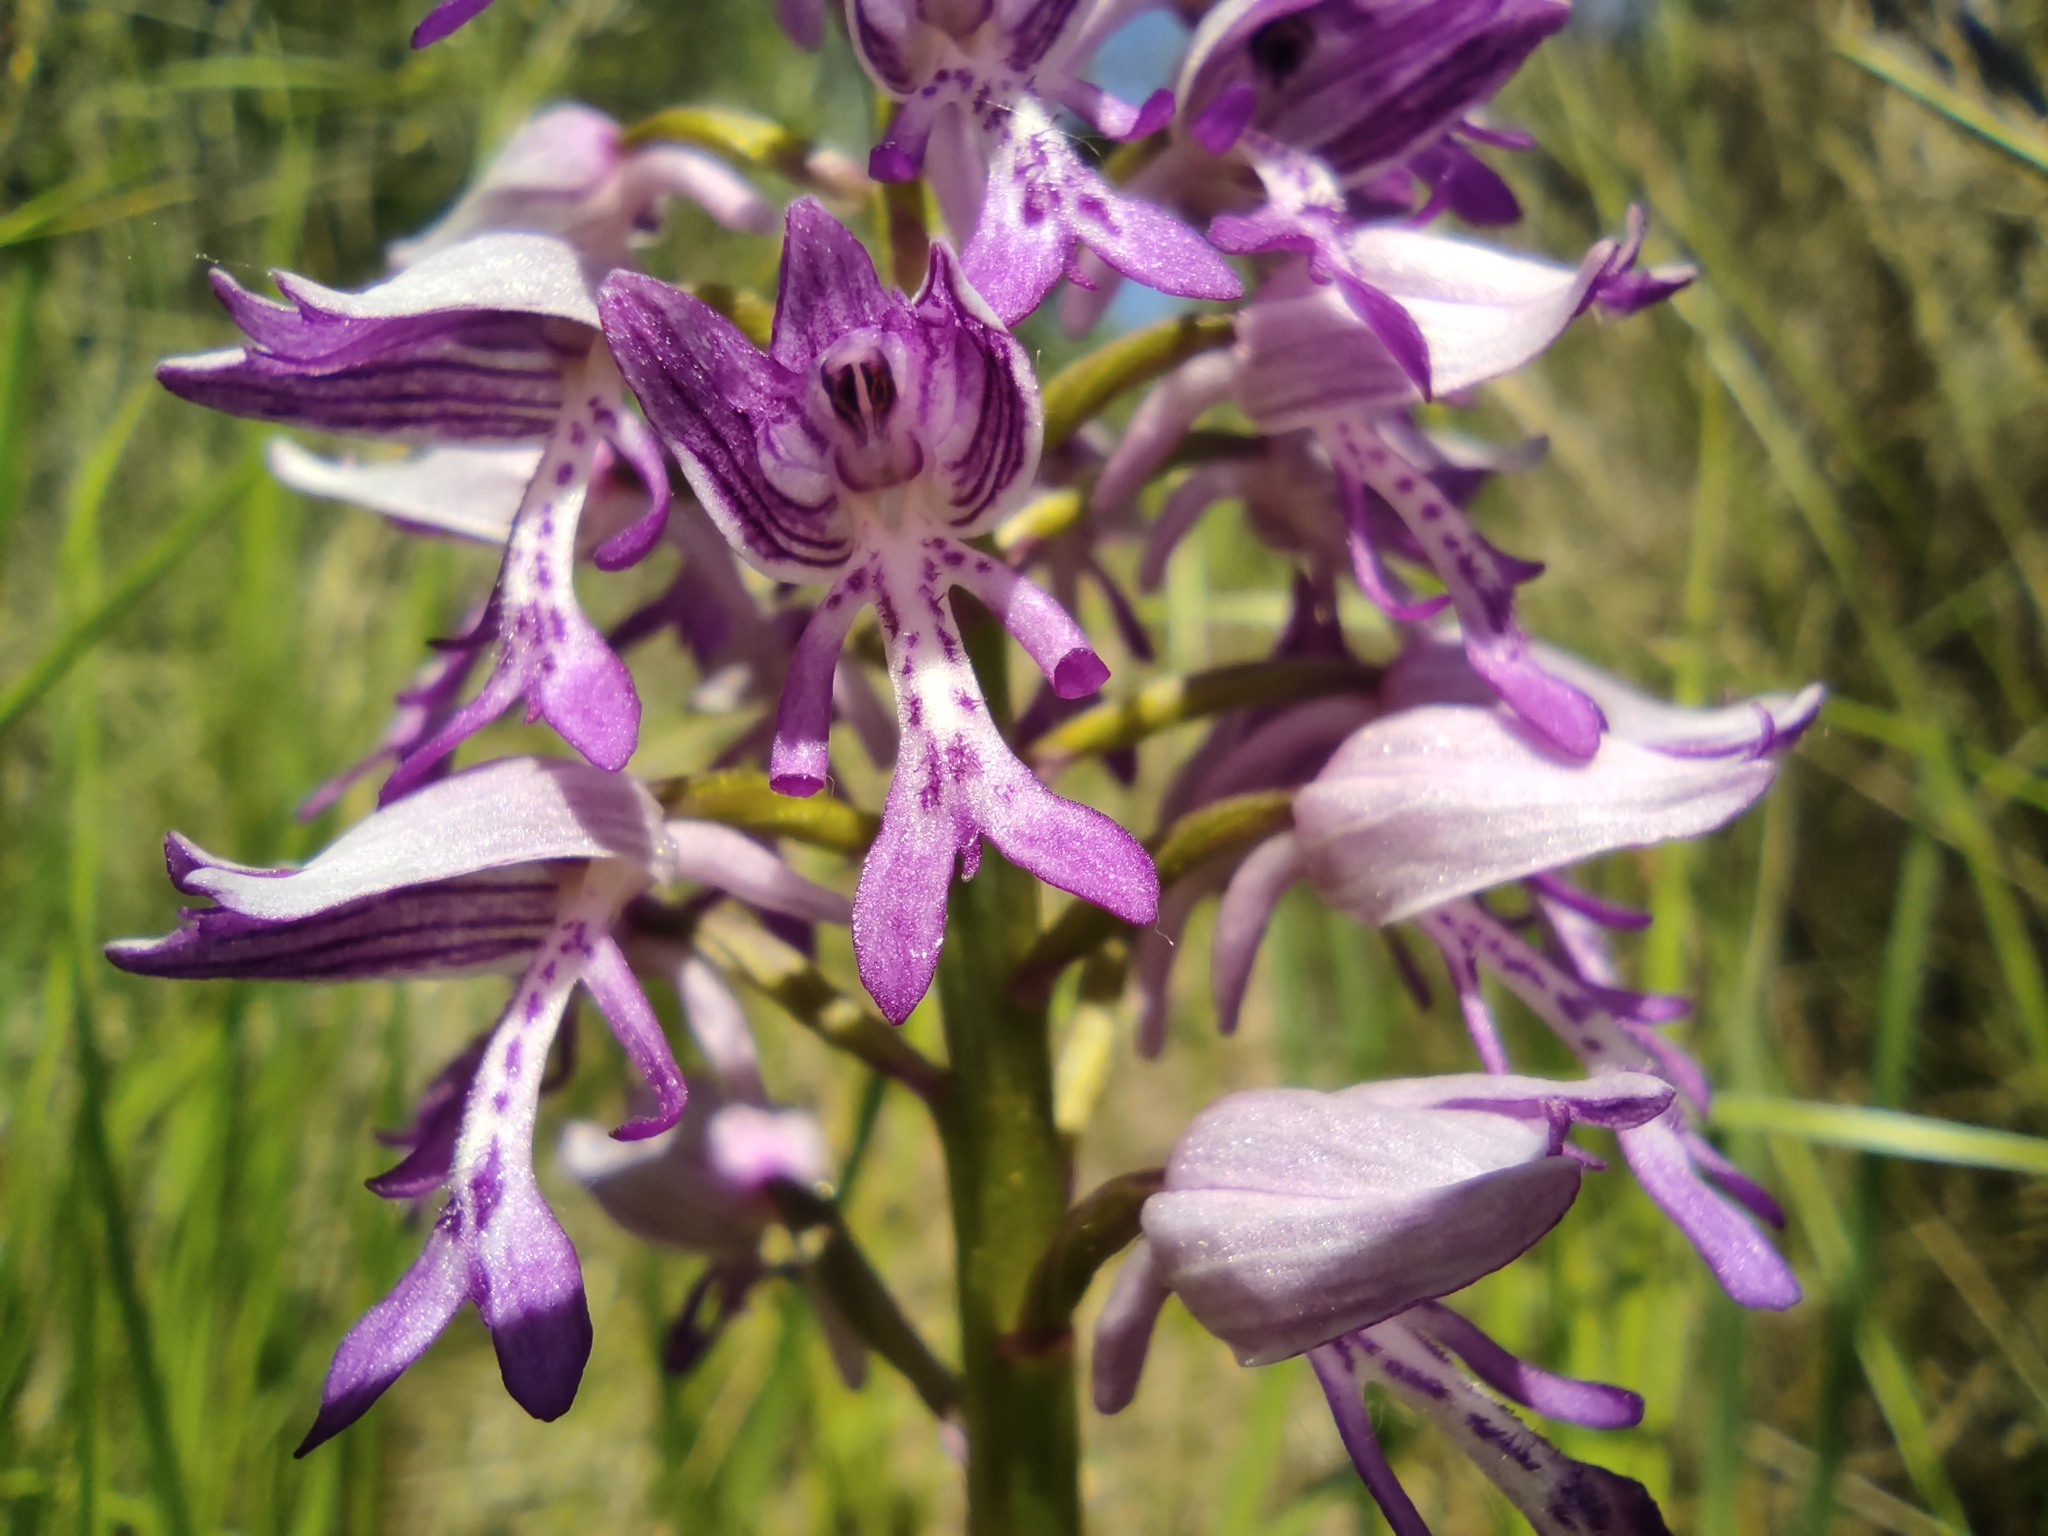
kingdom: Plantae
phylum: Tracheophyta
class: Liliopsida
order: Asparagales
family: Orchidaceae
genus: Orchis
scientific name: Orchis militaris
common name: Military orchid
